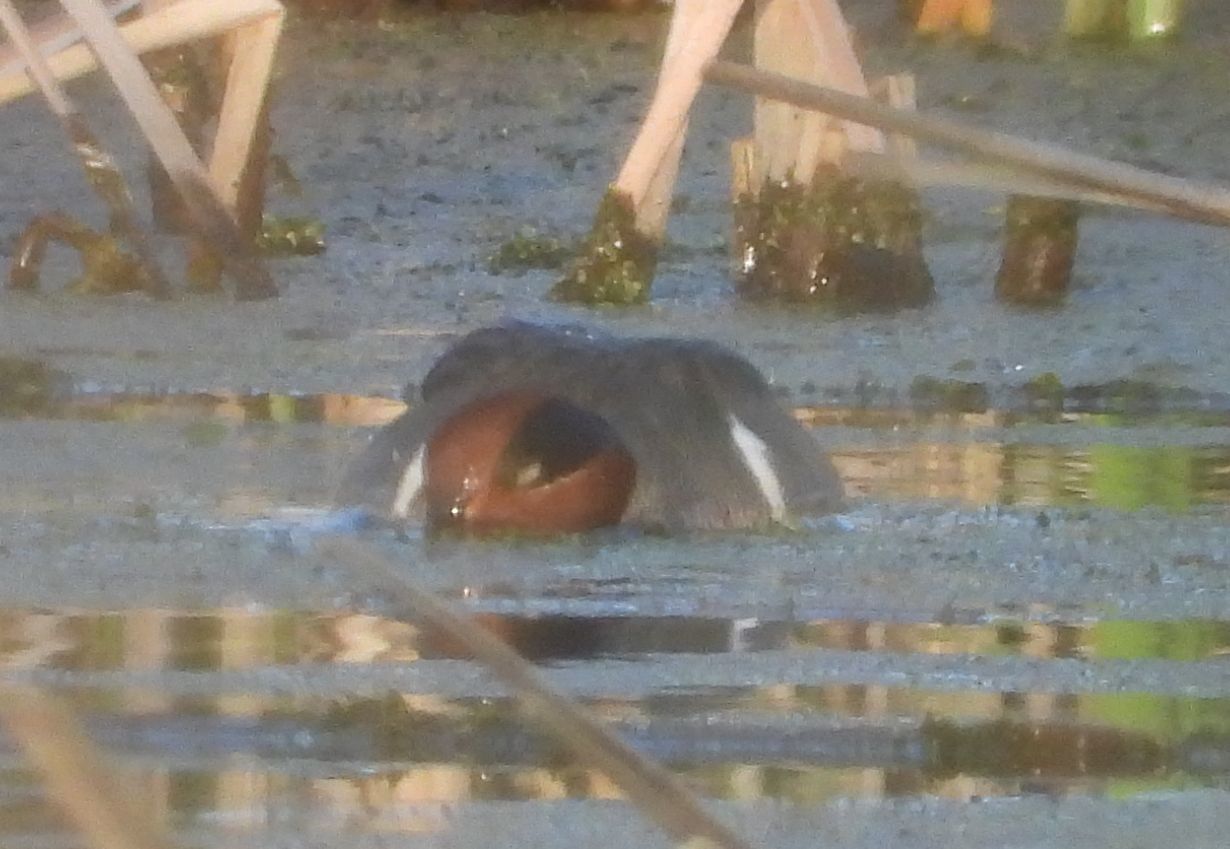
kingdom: Animalia
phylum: Chordata
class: Aves
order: Anseriformes
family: Anatidae
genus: Anas
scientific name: Anas crecca
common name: Eurasian teal
